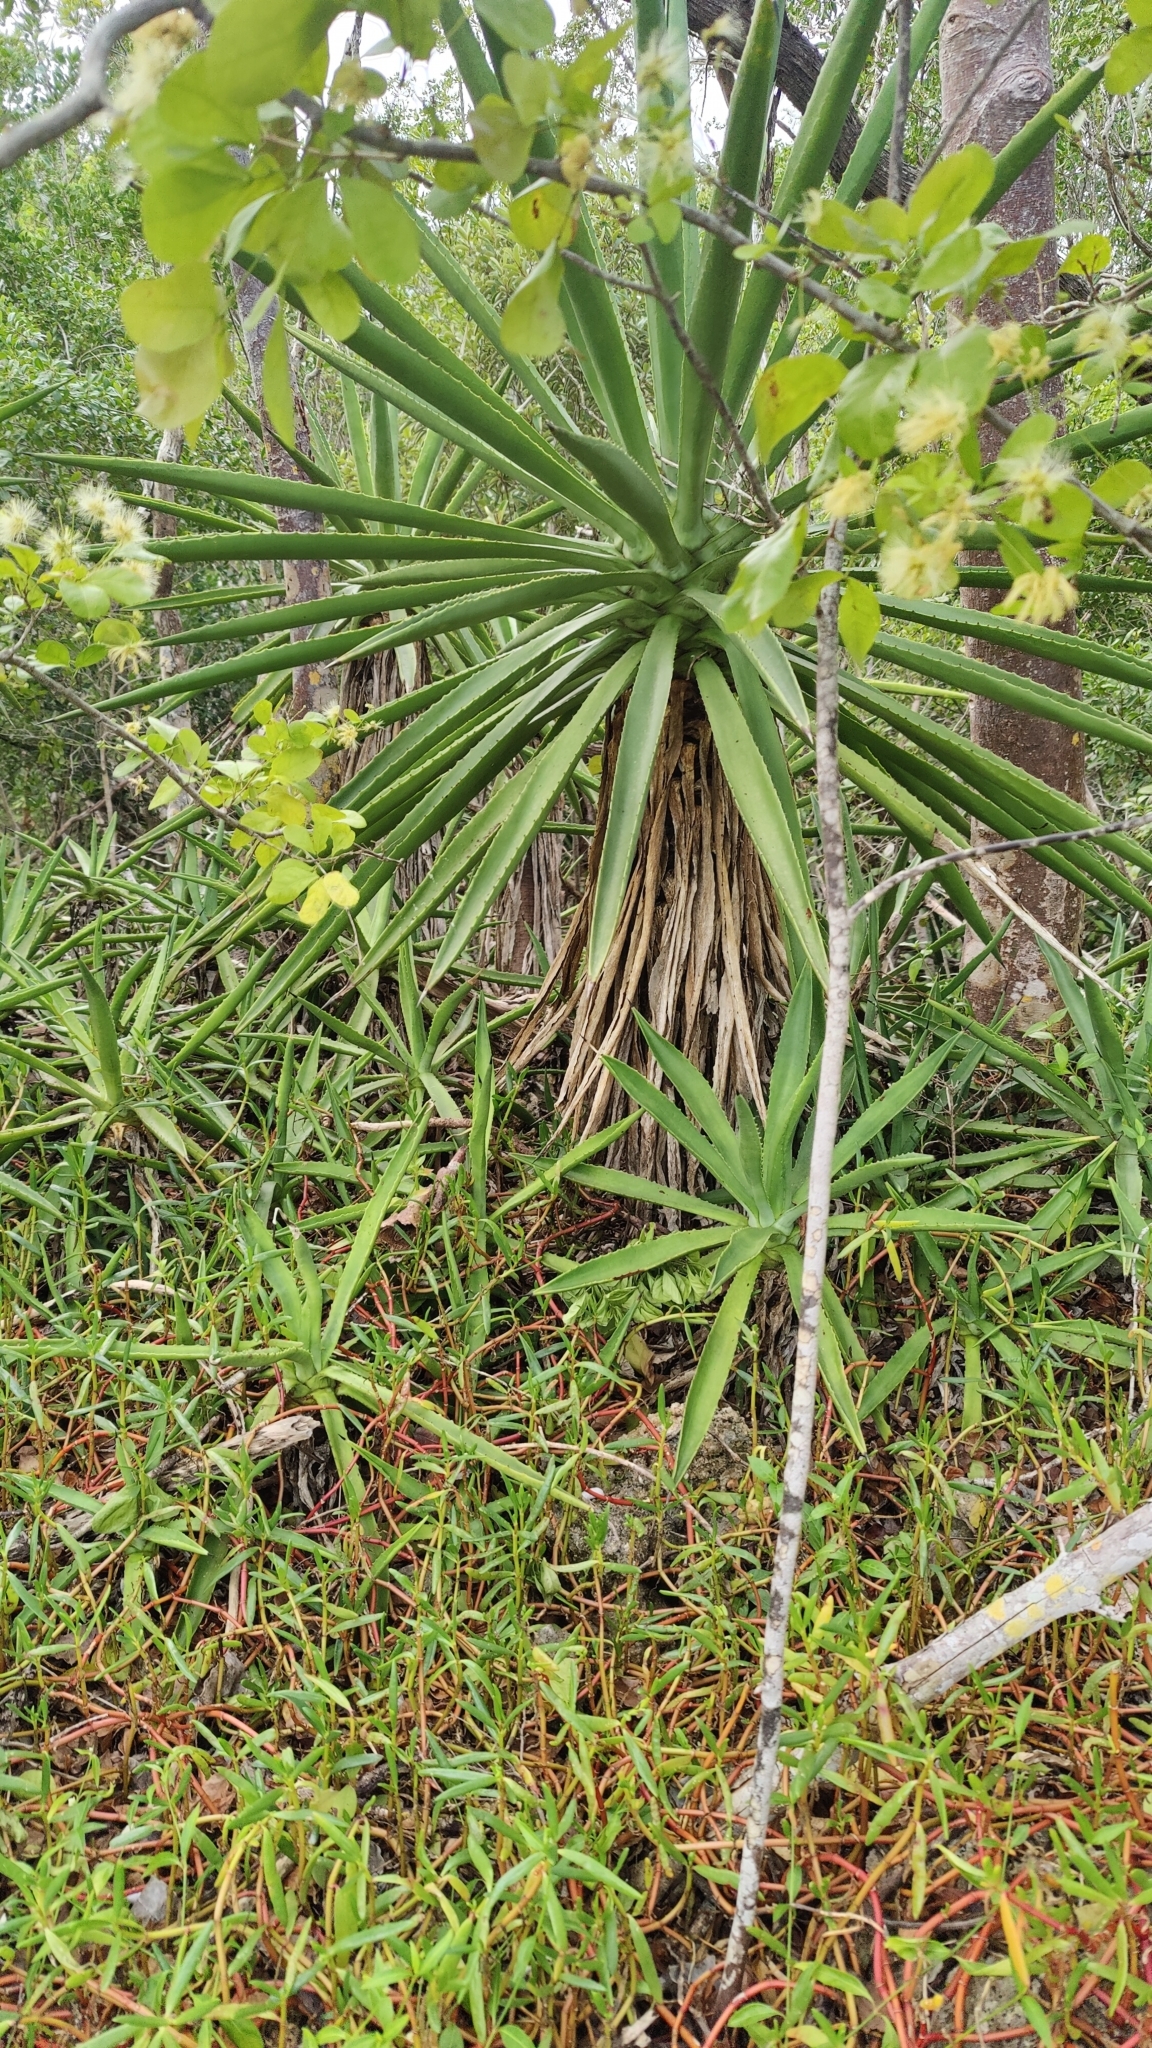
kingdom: Plantae
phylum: Tracheophyta
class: Liliopsida
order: Asparagales
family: Asparagaceae
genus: Agave
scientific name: Agave decipiens
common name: False sisal
